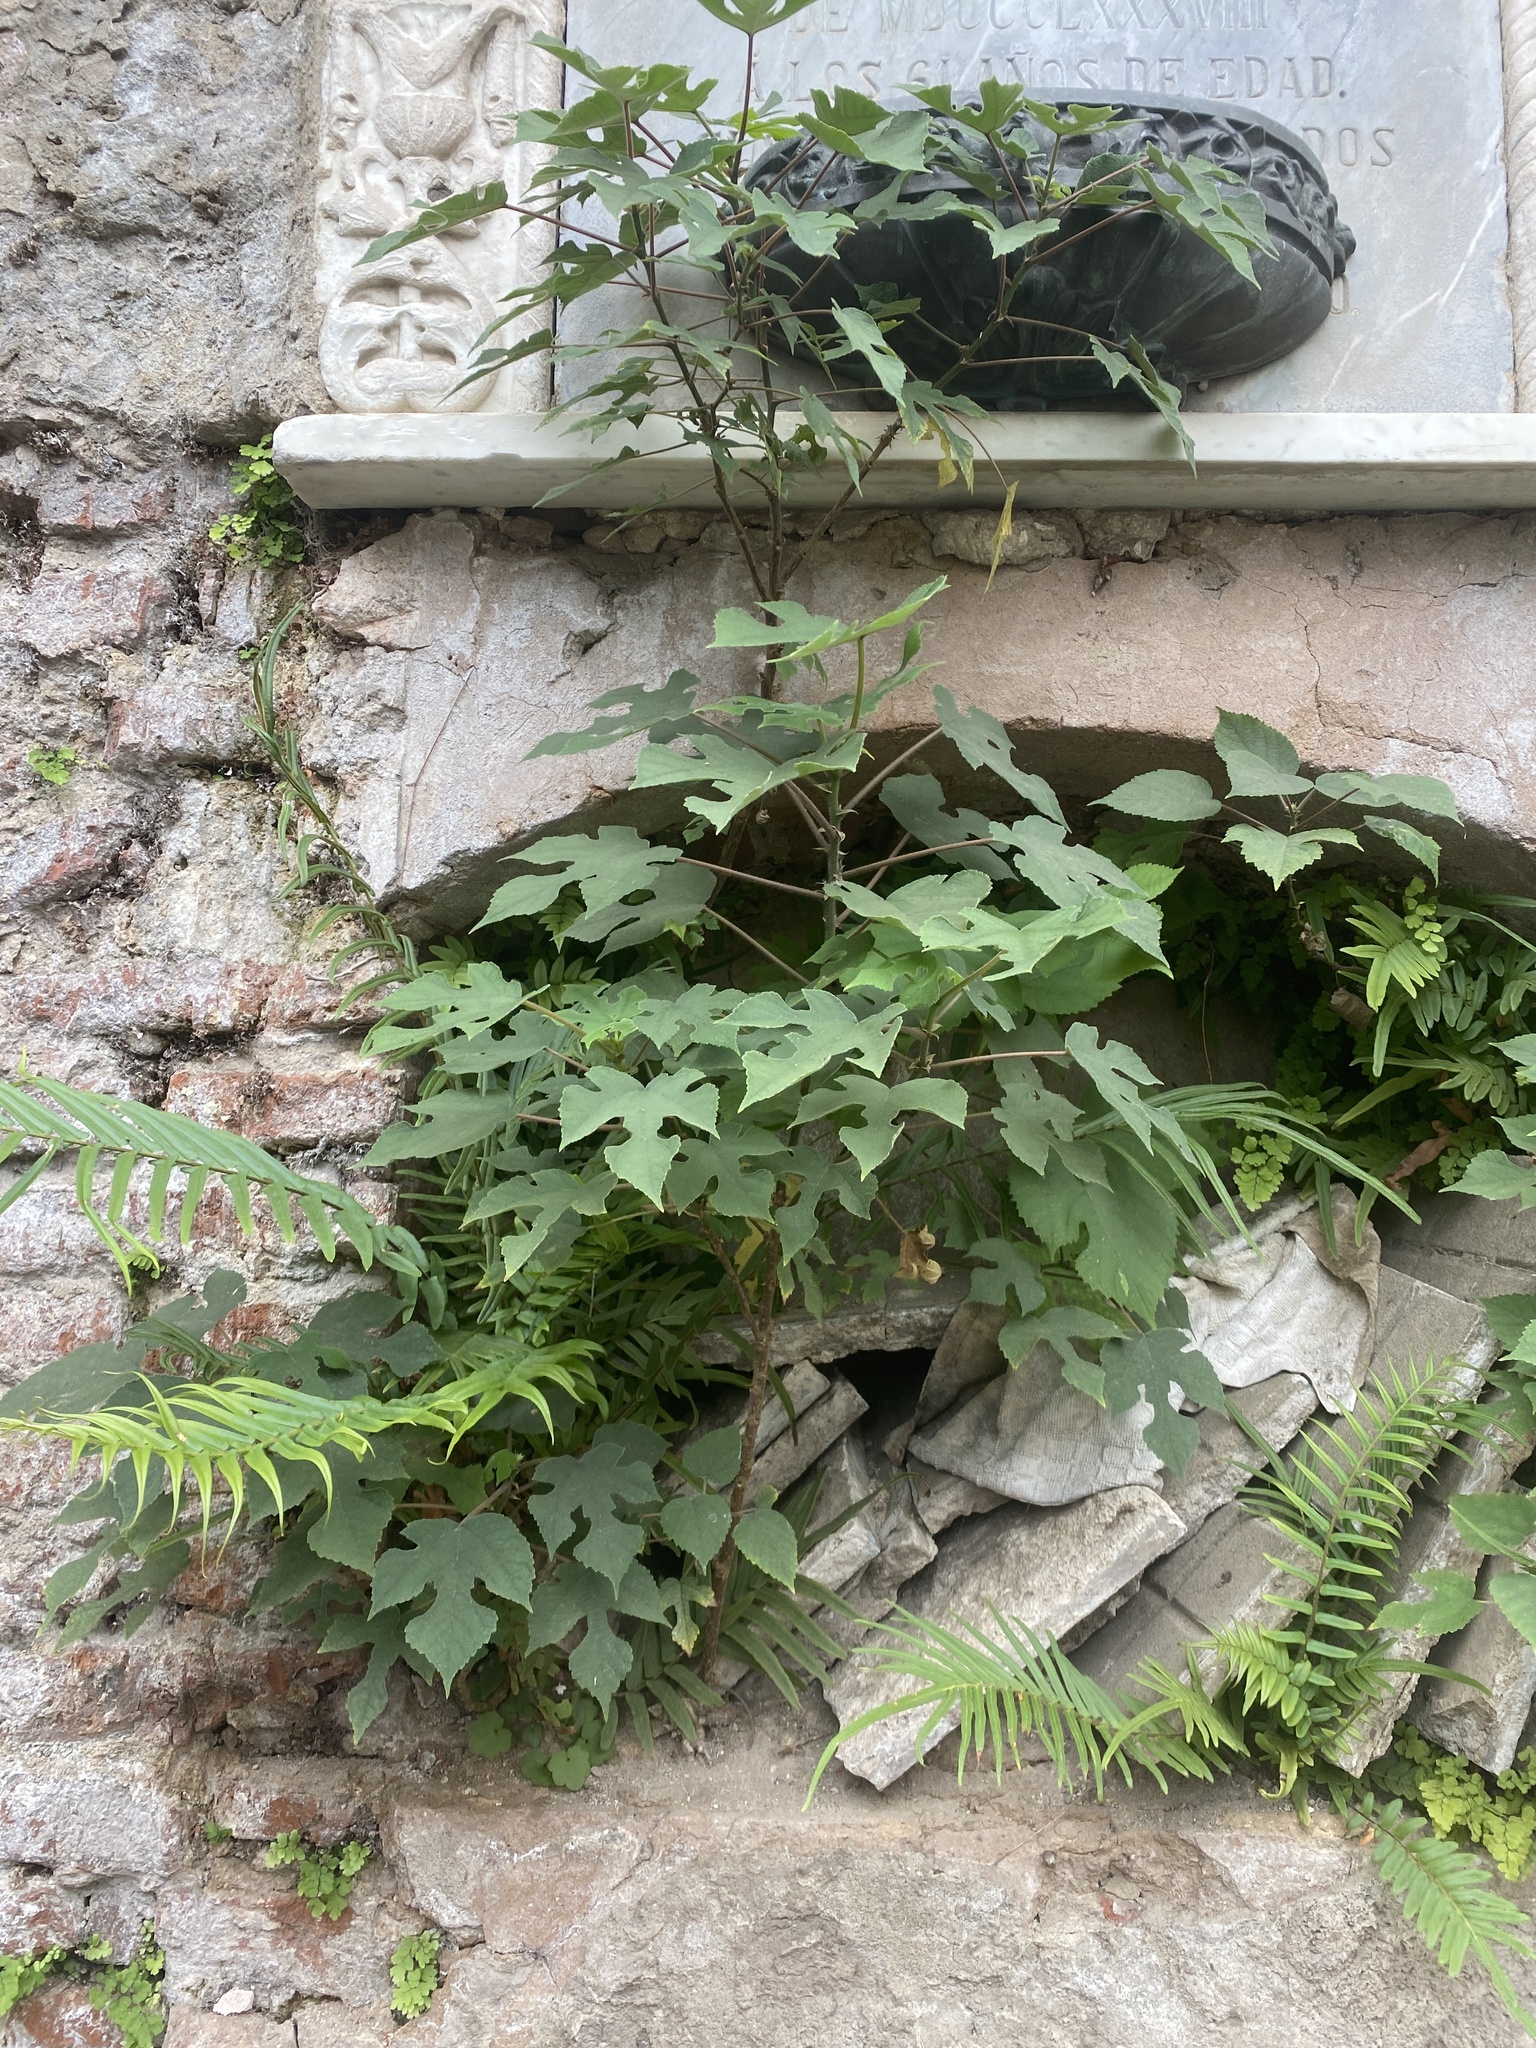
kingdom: Plantae
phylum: Tracheophyta
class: Magnoliopsida
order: Rosales
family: Moraceae
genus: Broussonetia
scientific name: Broussonetia papyrifera
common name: Paper mulberry
